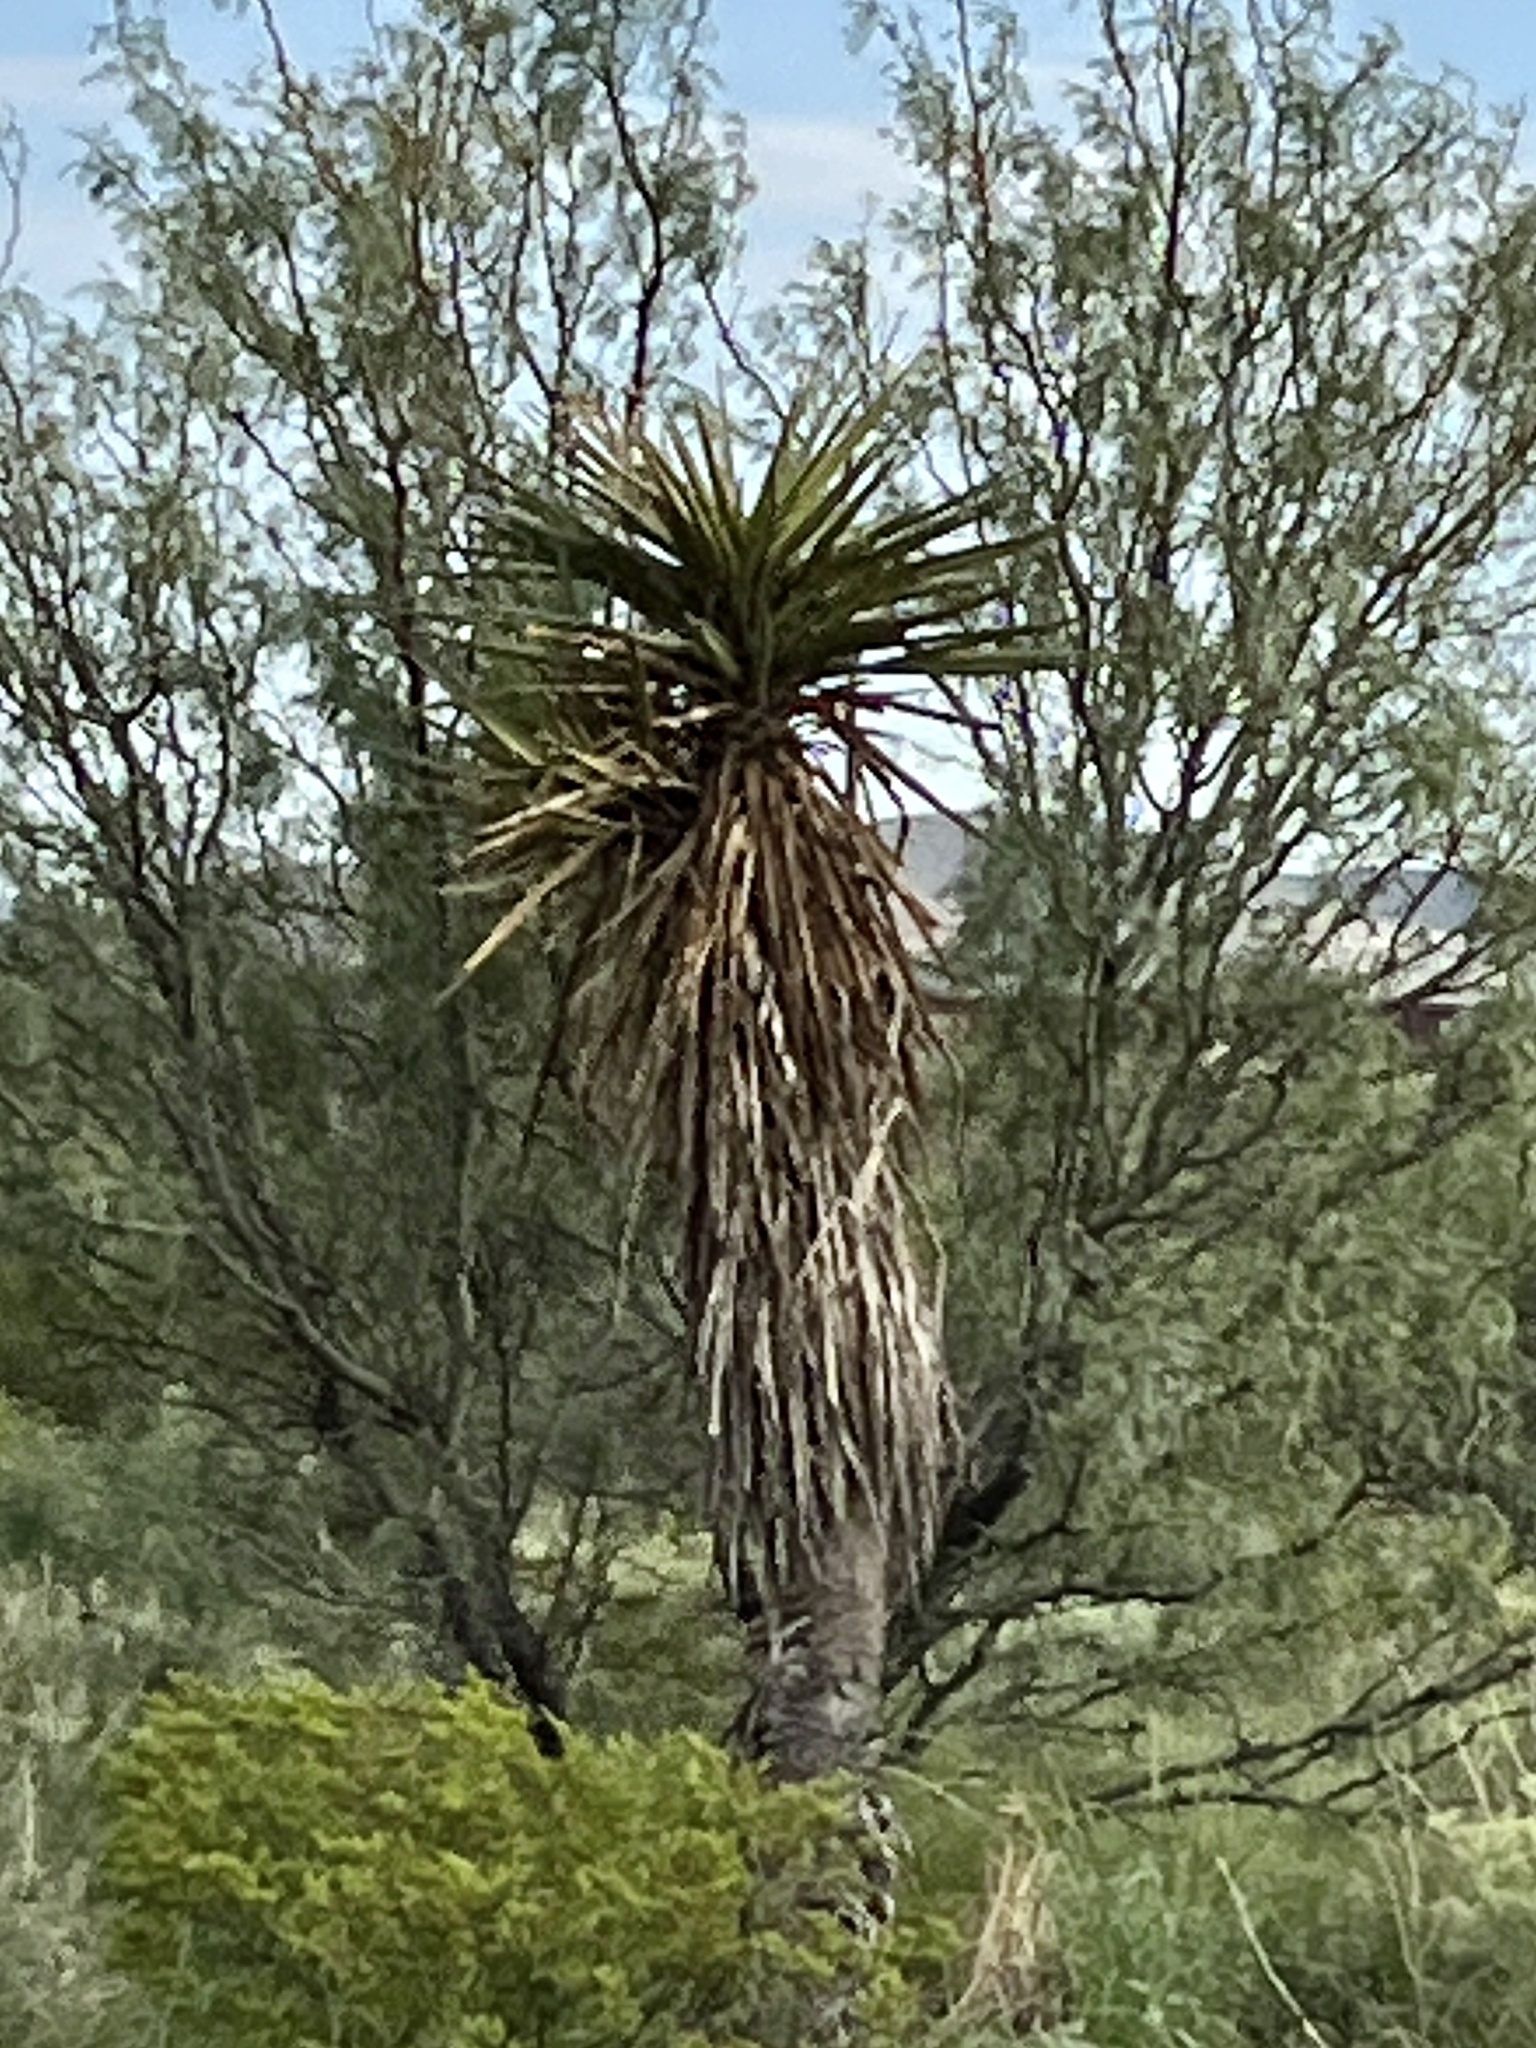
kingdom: Plantae
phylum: Tracheophyta
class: Liliopsida
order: Asparagales
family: Asparagaceae
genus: Yucca
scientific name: Yucca treculiana
